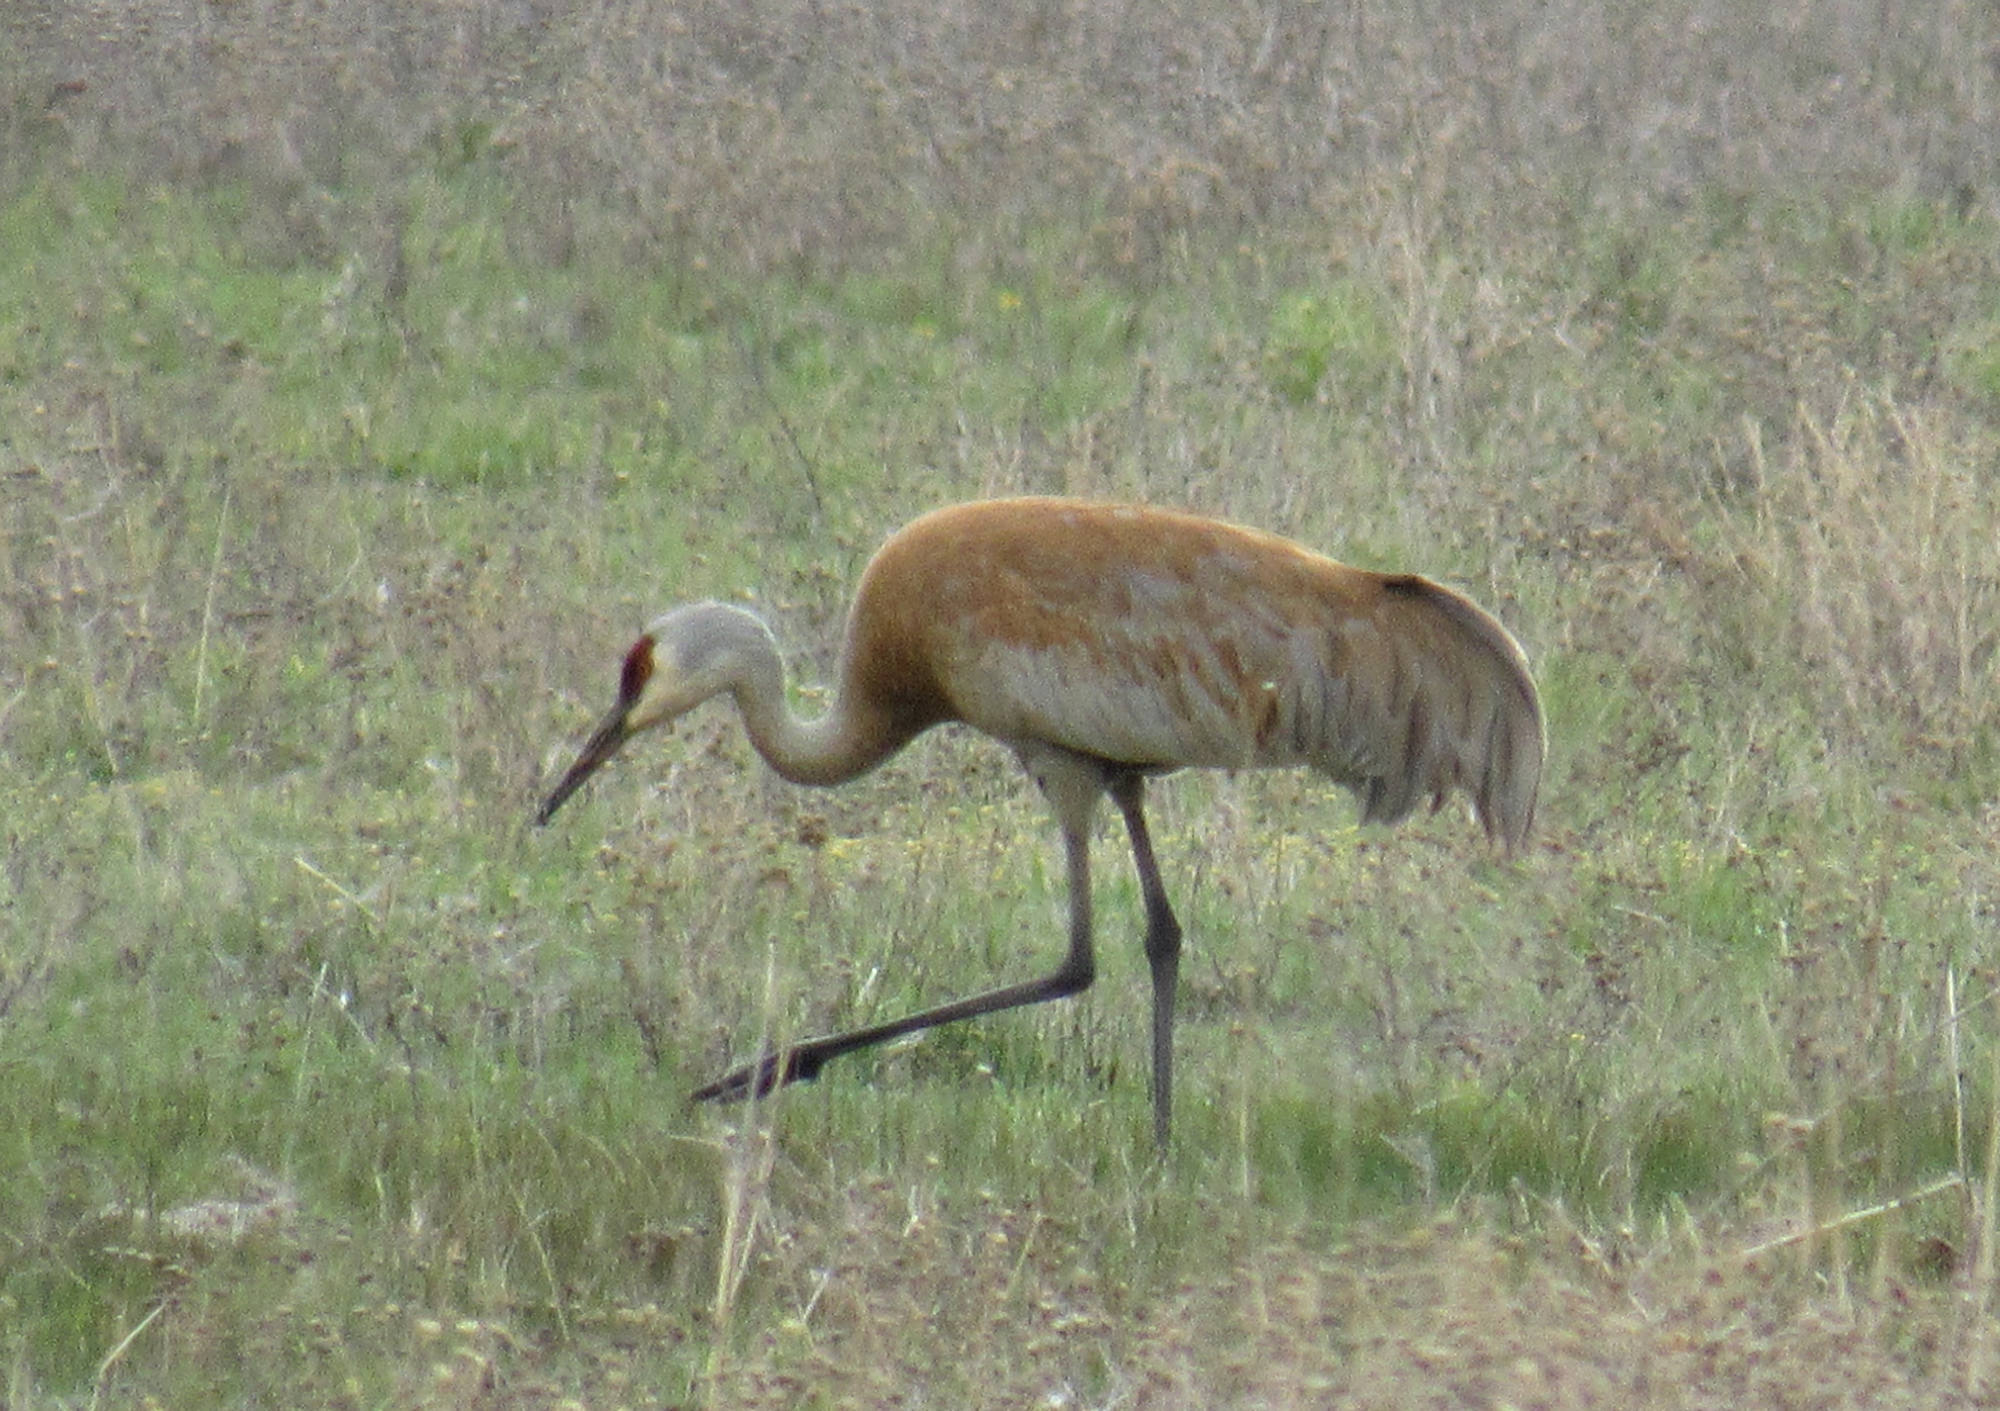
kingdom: Animalia
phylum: Chordata
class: Aves
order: Gruiformes
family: Gruidae
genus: Grus
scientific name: Grus canadensis
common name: Sandhill crane
